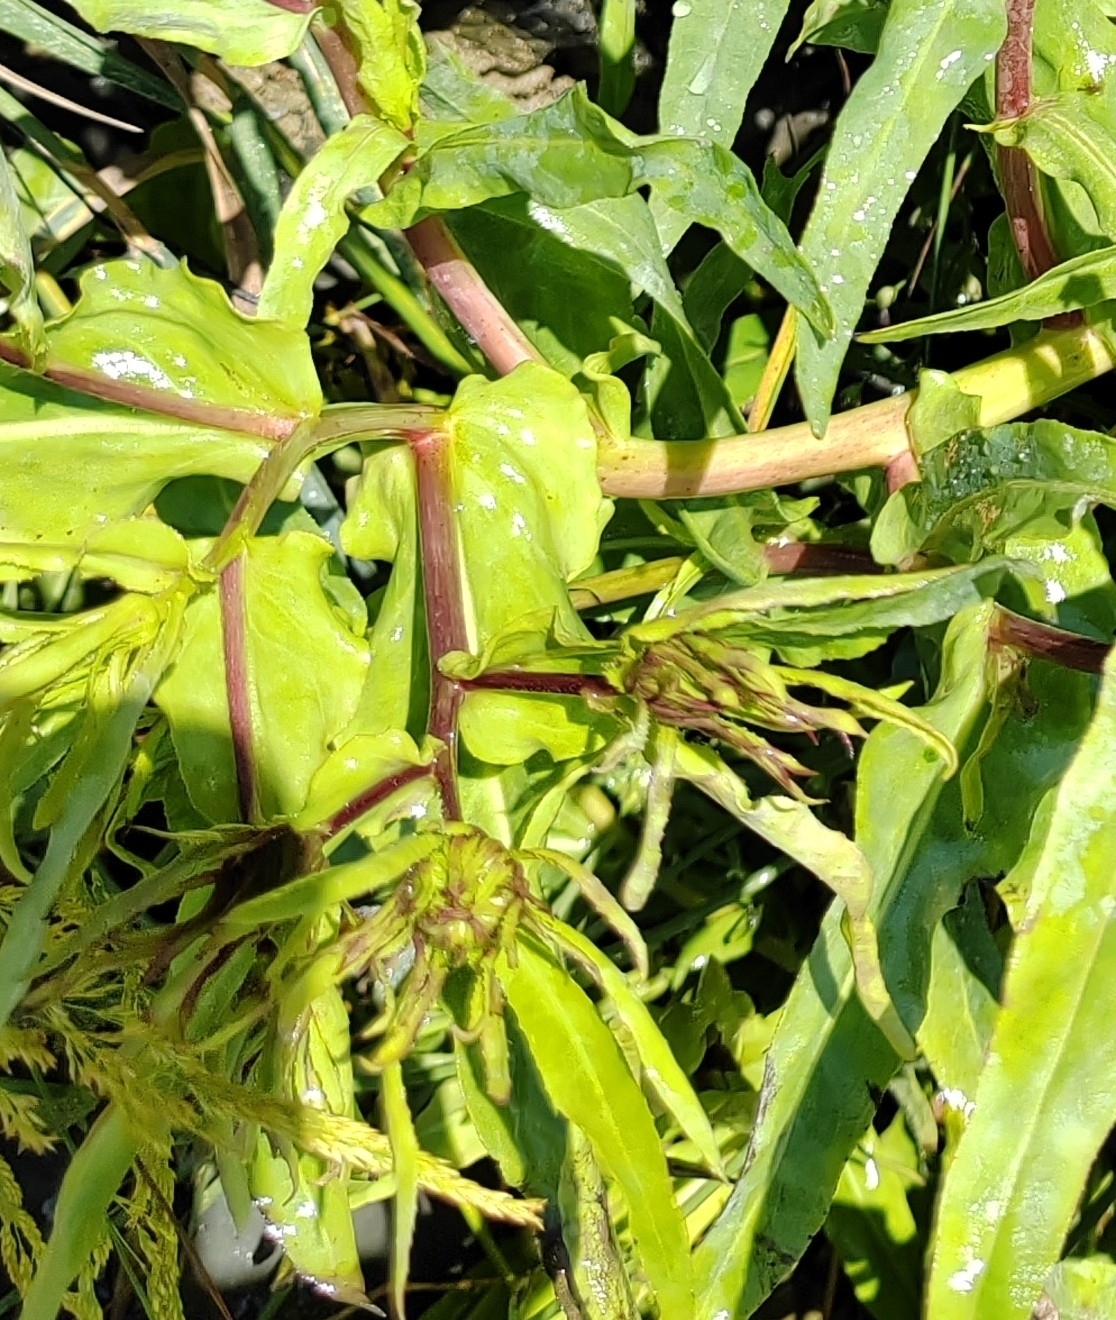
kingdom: Plantae
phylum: Tracheophyta
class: Magnoliopsida
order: Asterales
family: Asteraceae
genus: Pentanema
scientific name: Pentanema caspicum
